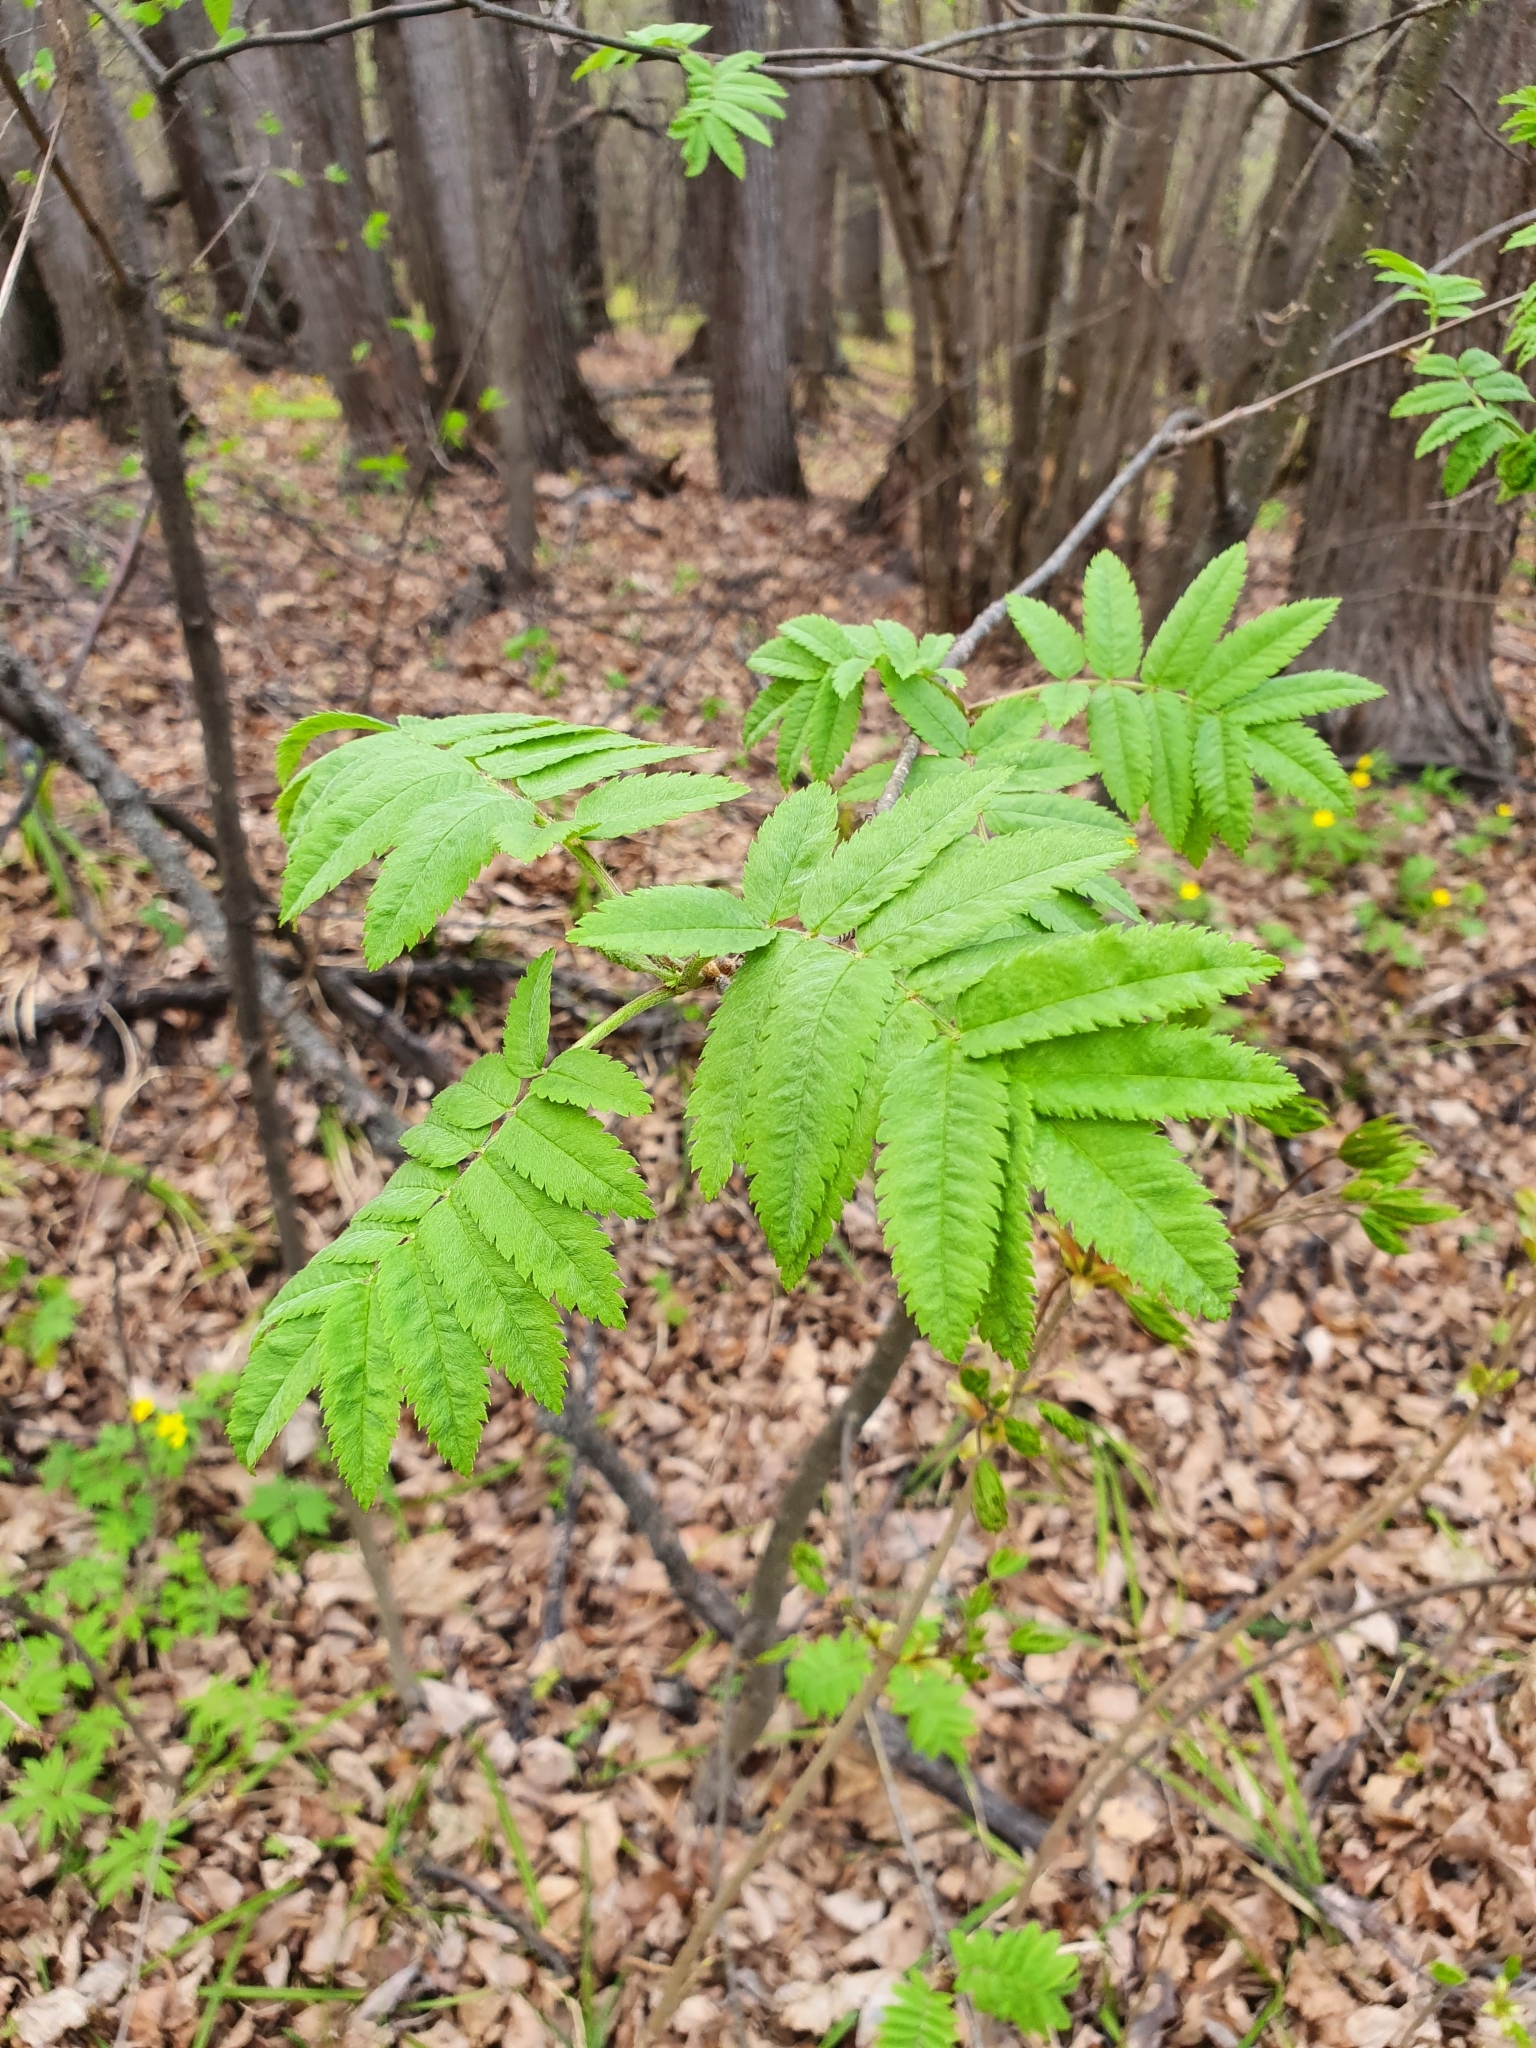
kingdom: Plantae
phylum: Tracheophyta
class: Magnoliopsida
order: Rosales
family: Rosaceae
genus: Sorbus
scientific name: Sorbus aucuparia
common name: Rowan
